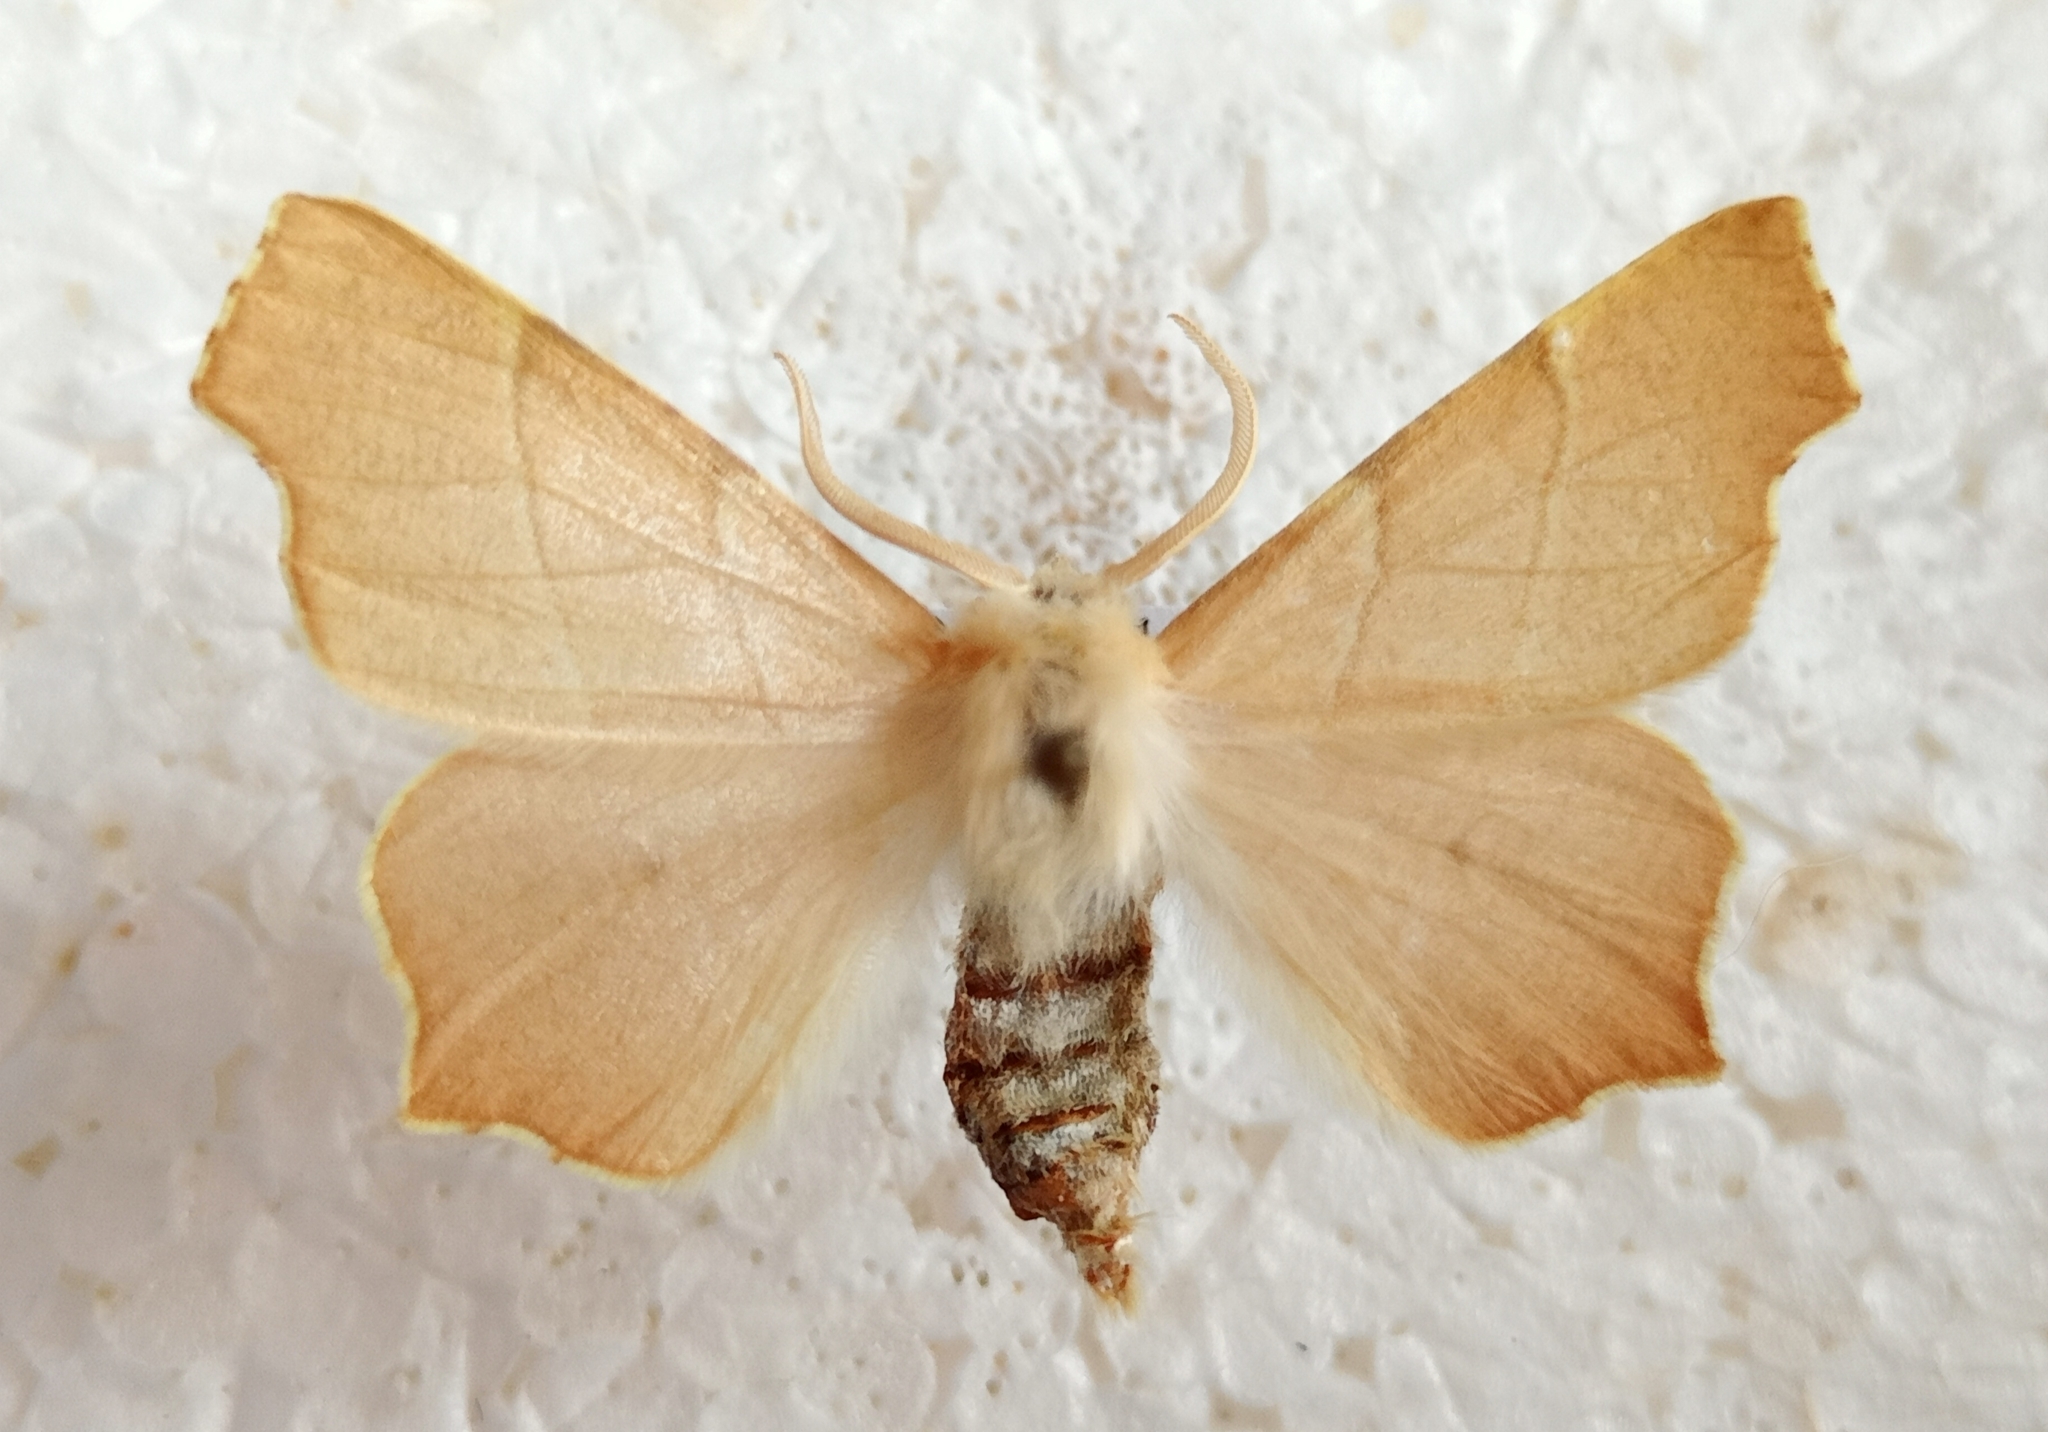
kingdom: Animalia
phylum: Arthropoda
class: Insecta
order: Lepidoptera
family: Geometridae
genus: Ennomos
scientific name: Ennomos quercaria
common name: Clouded august thorn
